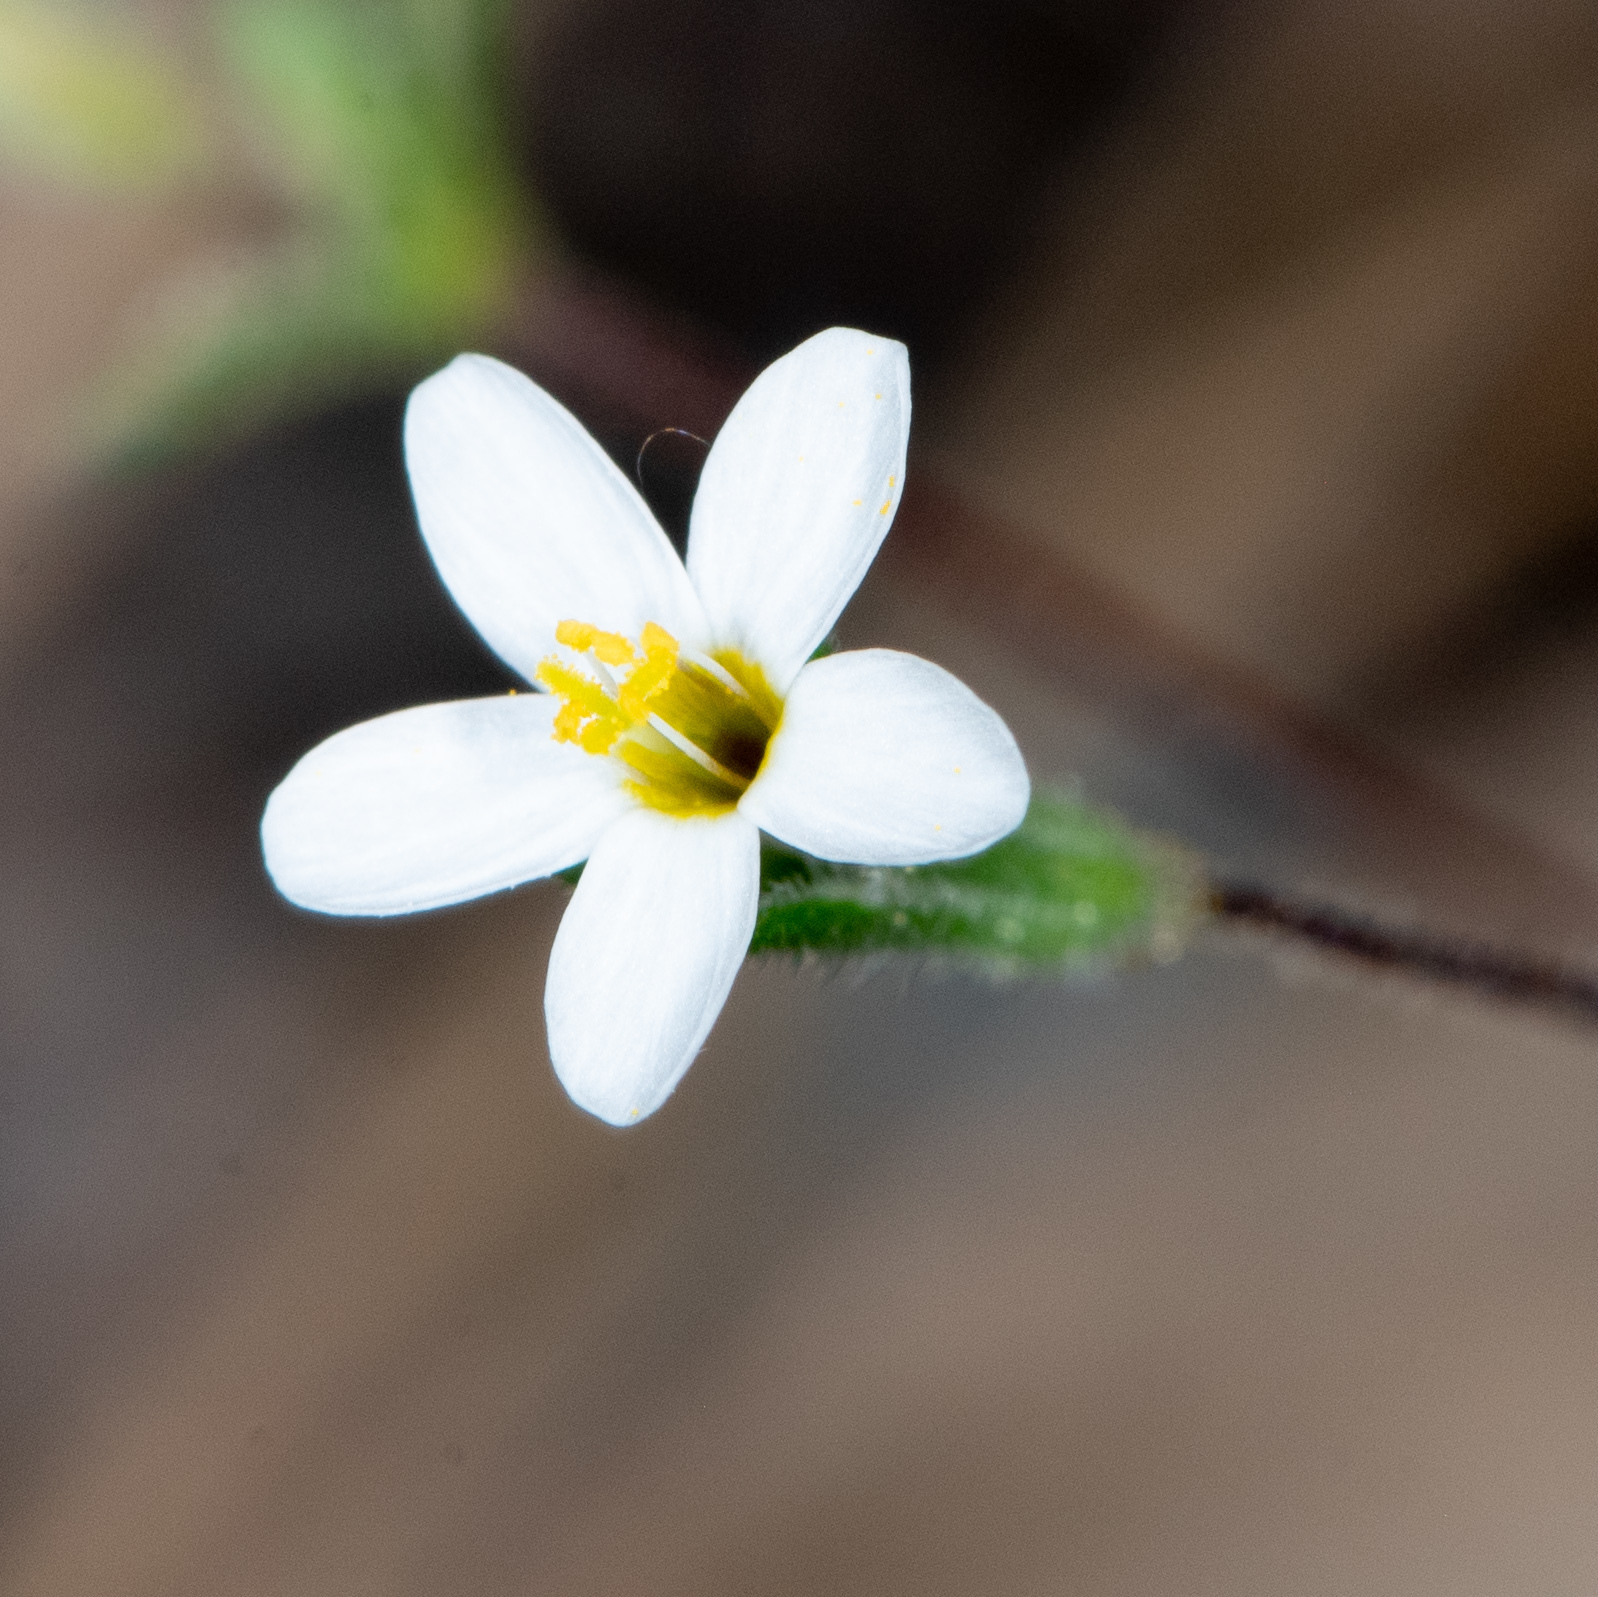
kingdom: Plantae
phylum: Tracheophyta
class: Magnoliopsida
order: Ericales
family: Polemoniaceae
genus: Leptosiphon
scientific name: Leptosiphon bolanderi
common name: Bolander's linanthus
